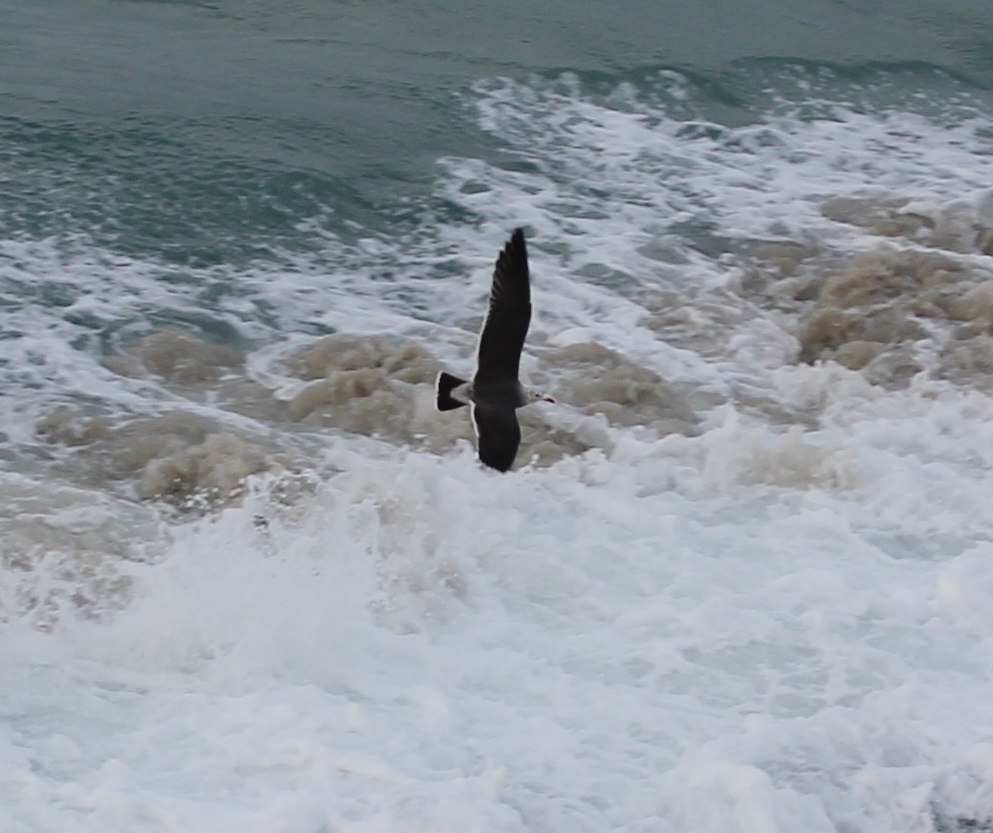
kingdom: Animalia
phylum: Chordata
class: Aves
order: Charadriiformes
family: Laridae
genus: Larus
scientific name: Larus heermanni
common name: Heermann's gull
